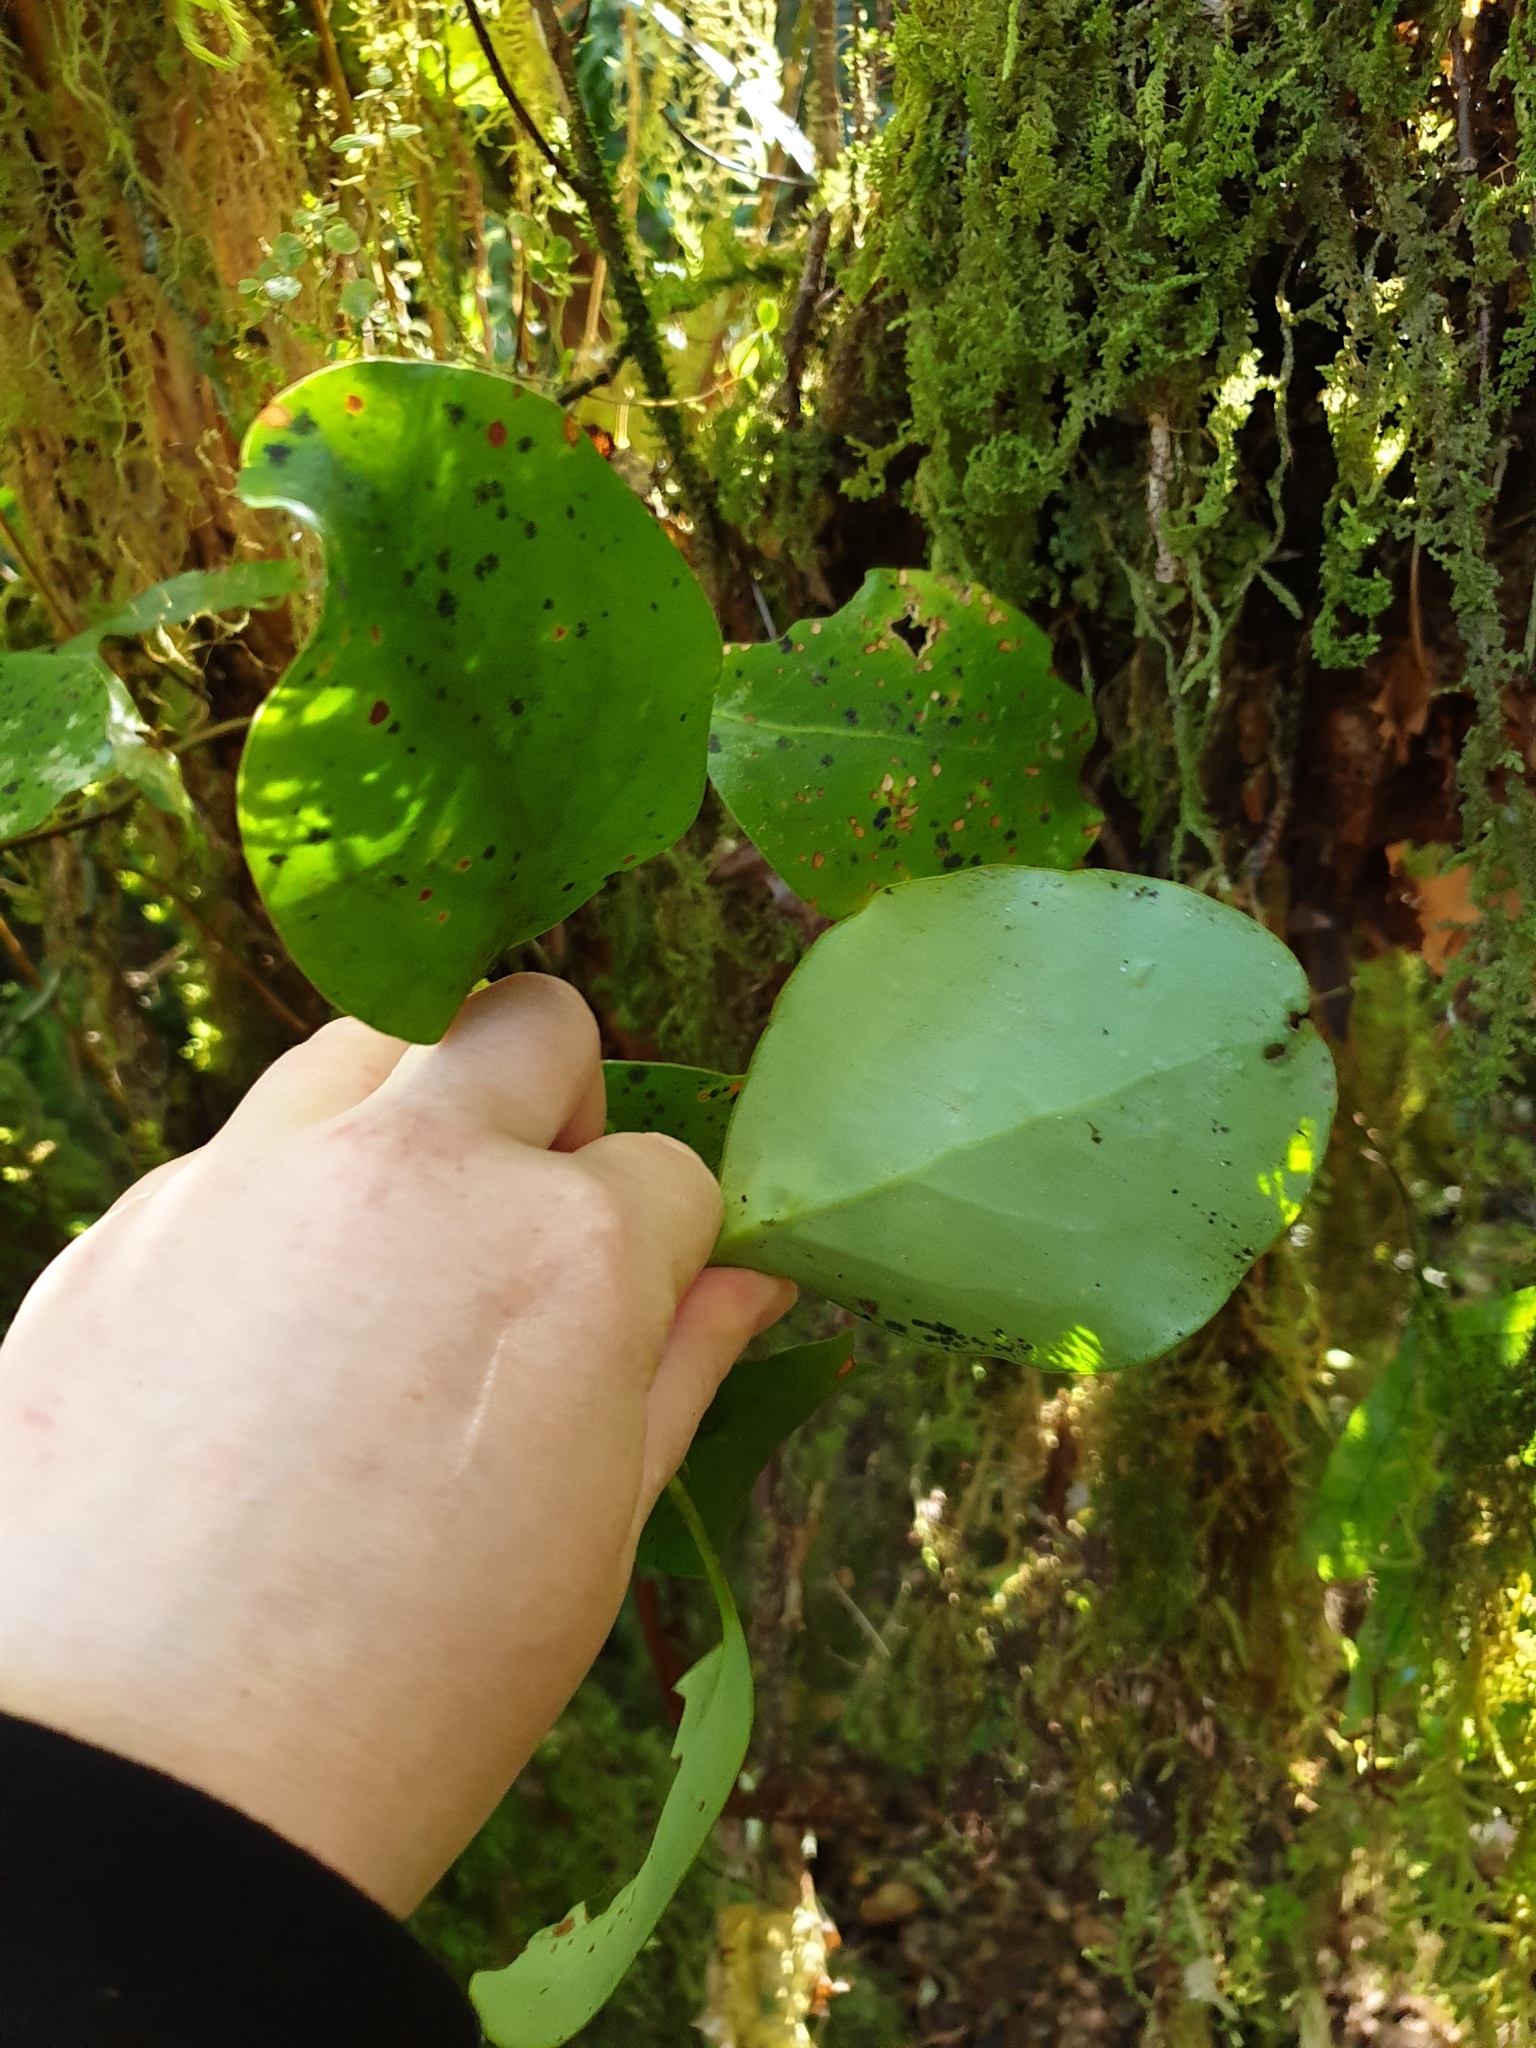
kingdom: Plantae
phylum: Tracheophyta
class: Magnoliopsida
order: Apiales
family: Griseliniaceae
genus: Griselinia
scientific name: Griselinia littoralis
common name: New zealand broadleaf
